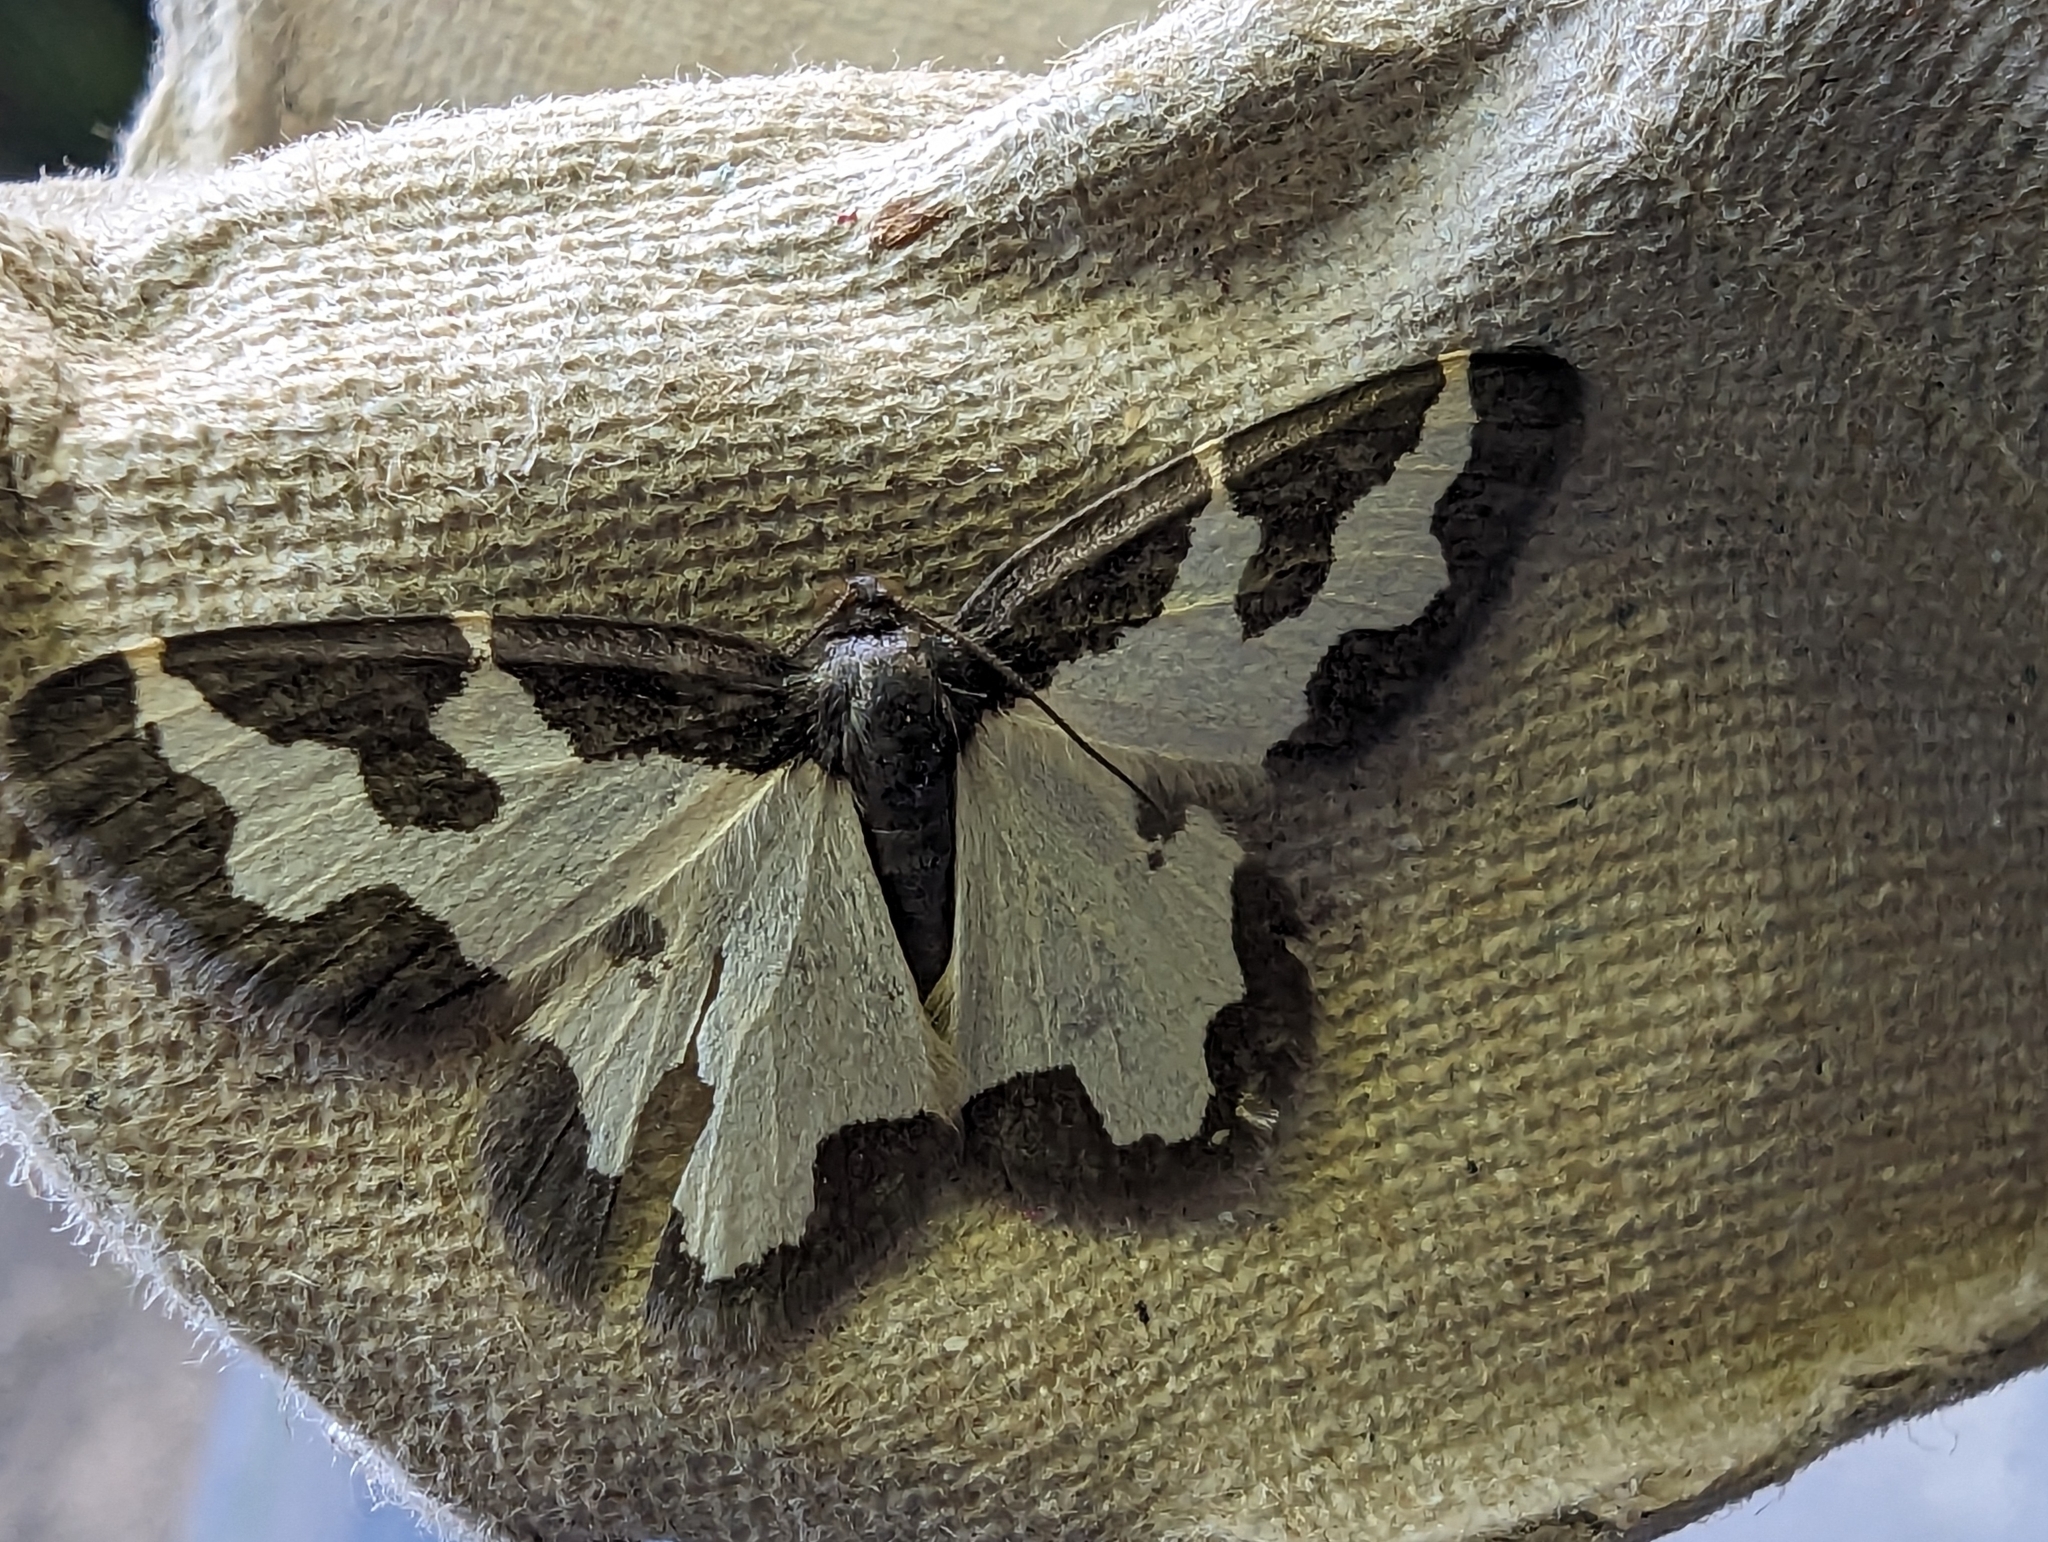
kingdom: Animalia
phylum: Arthropoda
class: Insecta
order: Lepidoptera
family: Geometridae
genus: Lomaspilis
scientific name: Lomaspilis marginata
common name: Clouded border
